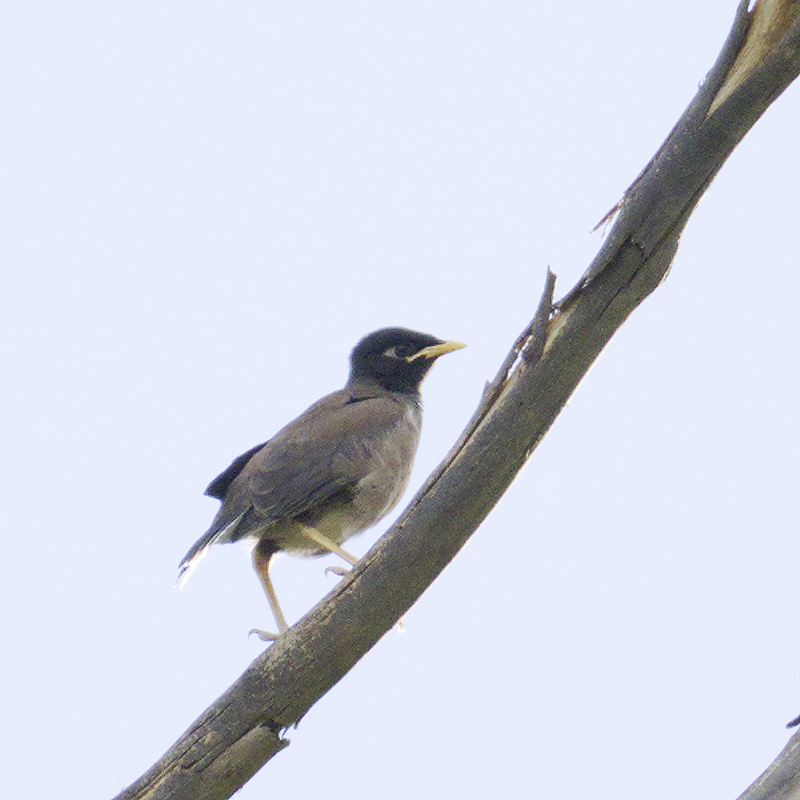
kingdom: Animalia
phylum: Chordata
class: Aves
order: Passeriformes
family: Sturnidae
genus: Acridotheres
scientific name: Acridotheres tristis
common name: Common myna
